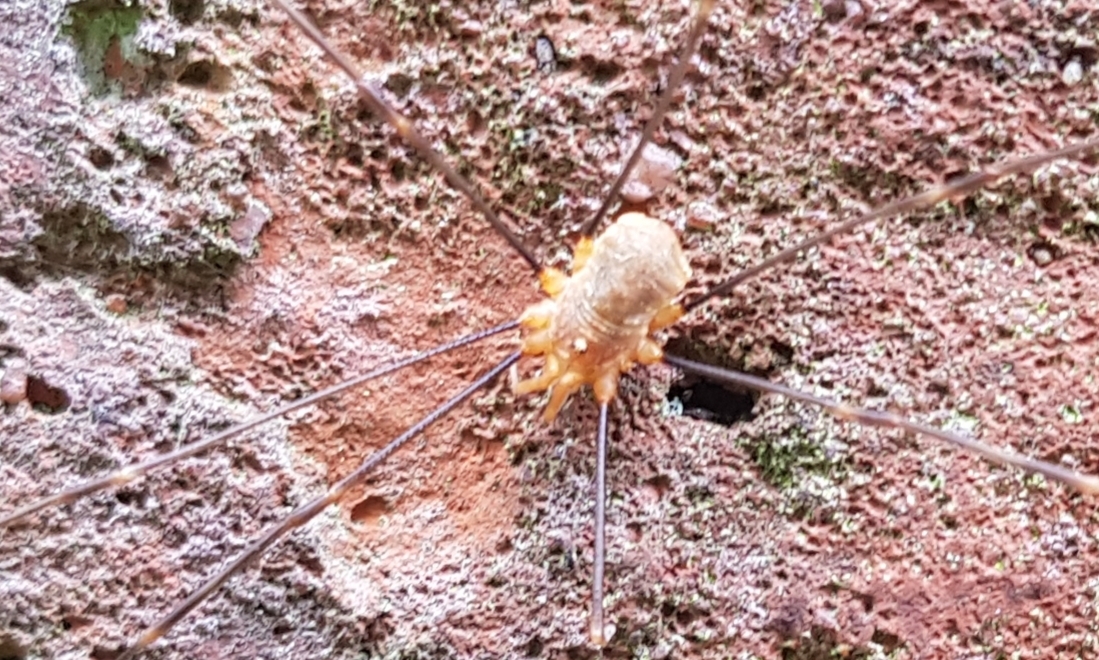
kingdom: Animalia
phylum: Arthropoda
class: Arachnida
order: Opiliones
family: Phalangiidae
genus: Opilio
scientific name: Opilio canestrinii
